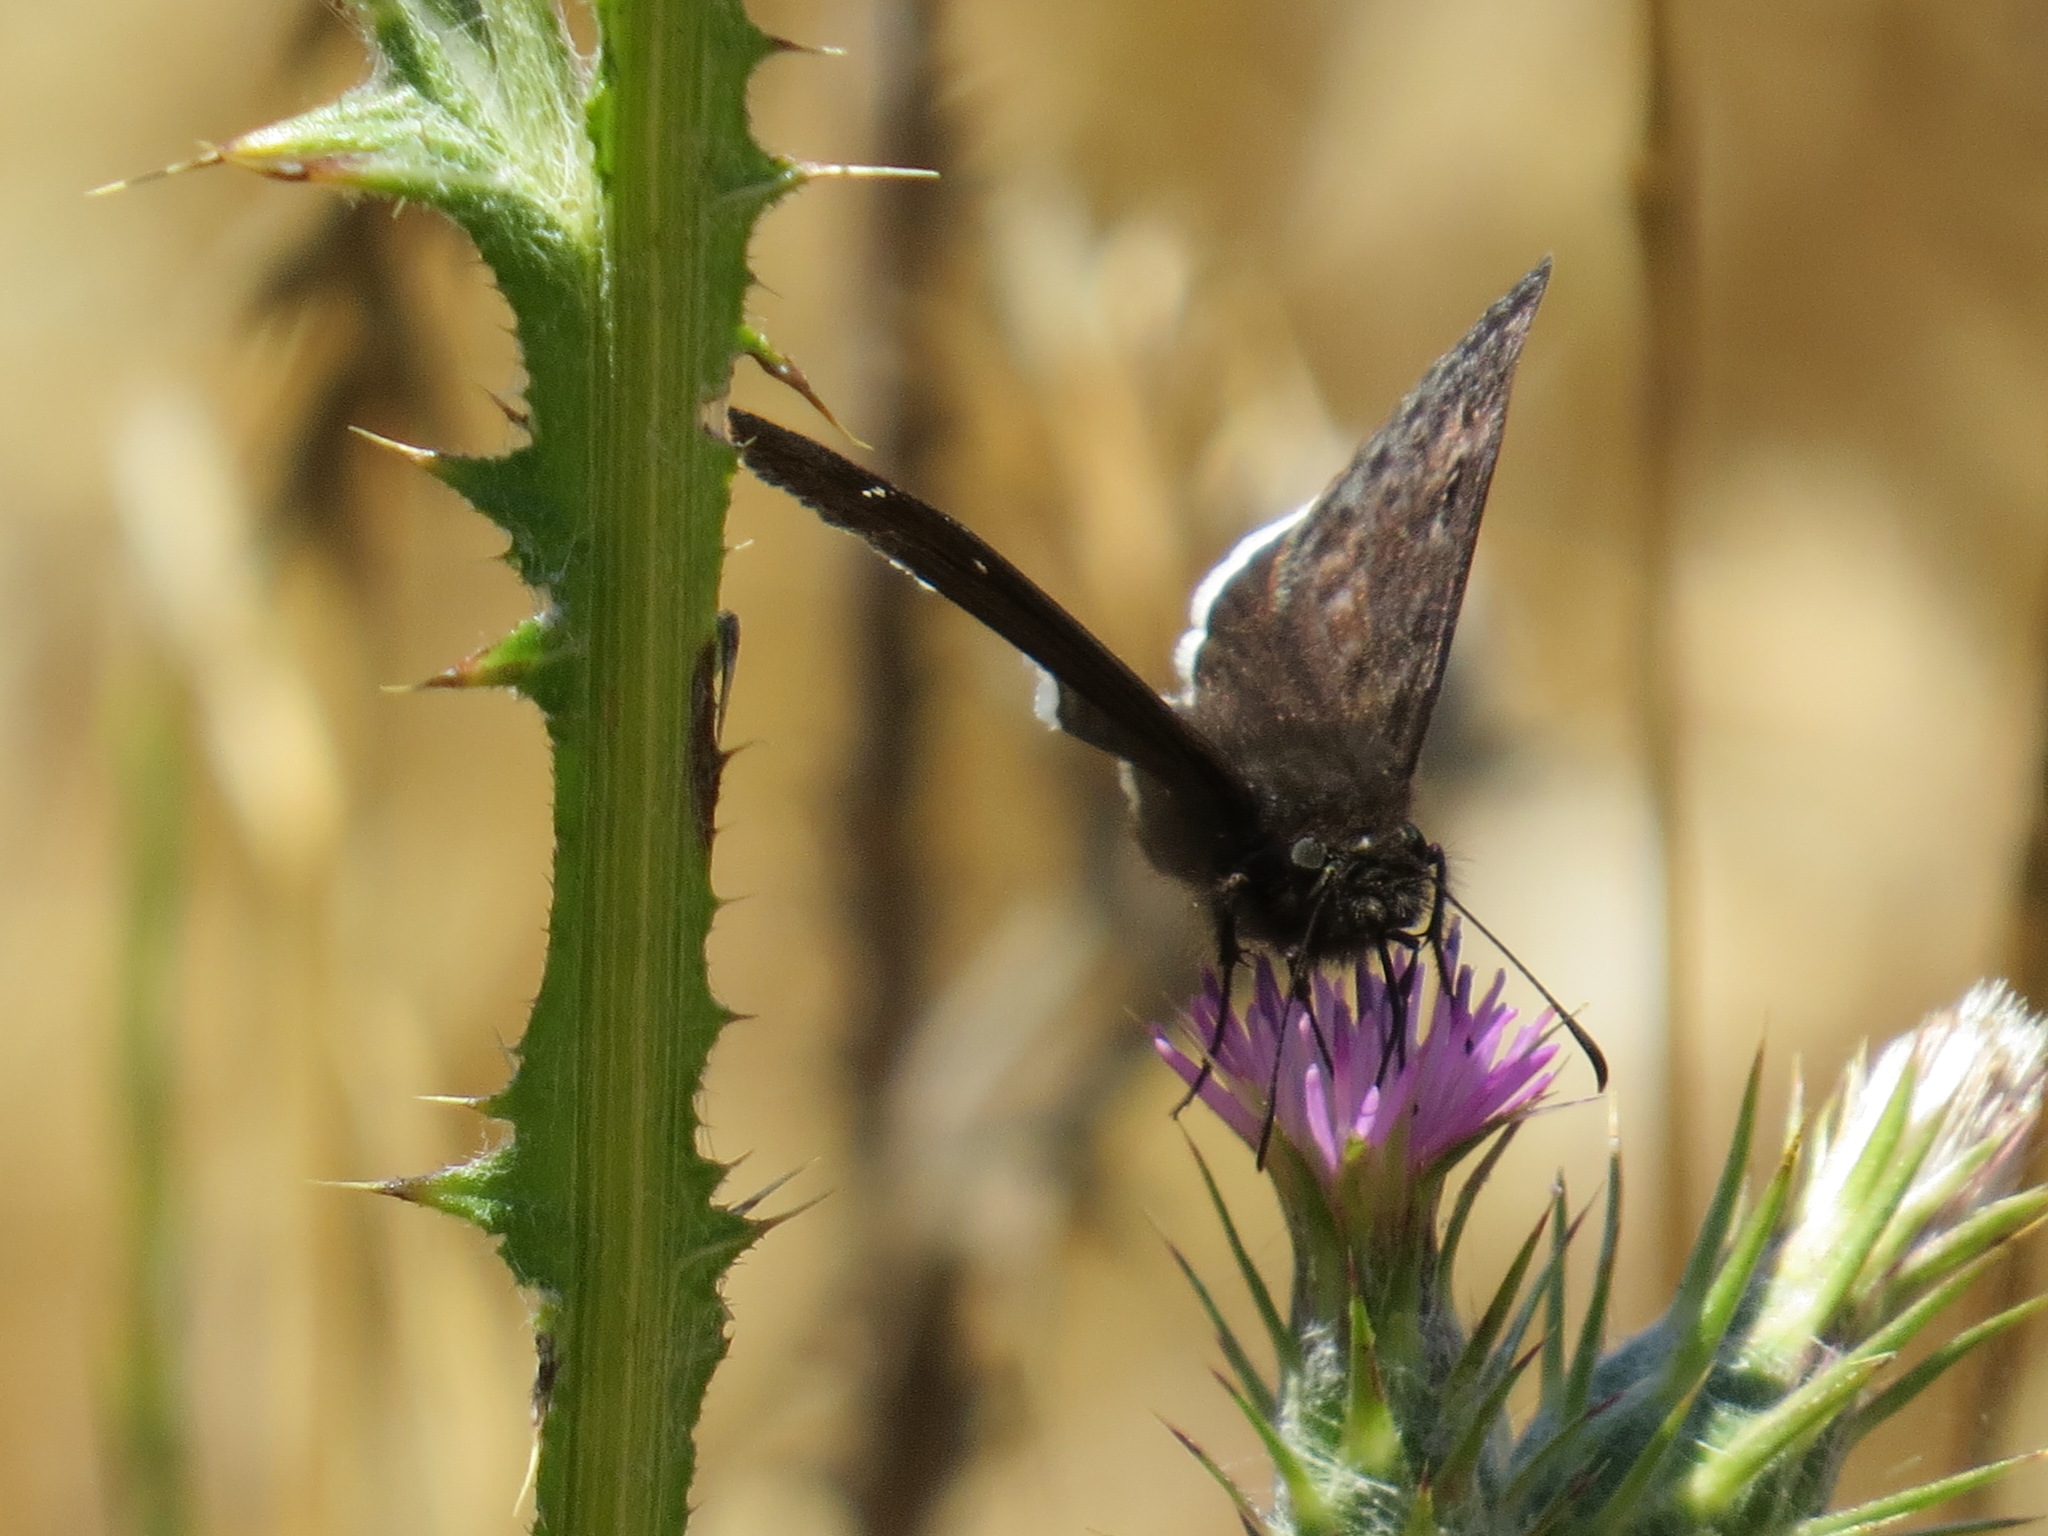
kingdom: Animalia
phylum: Arthropoda
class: Insecta
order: Lepidoptera
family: Hesperiidae
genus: Erynnis
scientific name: Erynnis tristis
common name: Mournful duskywing
